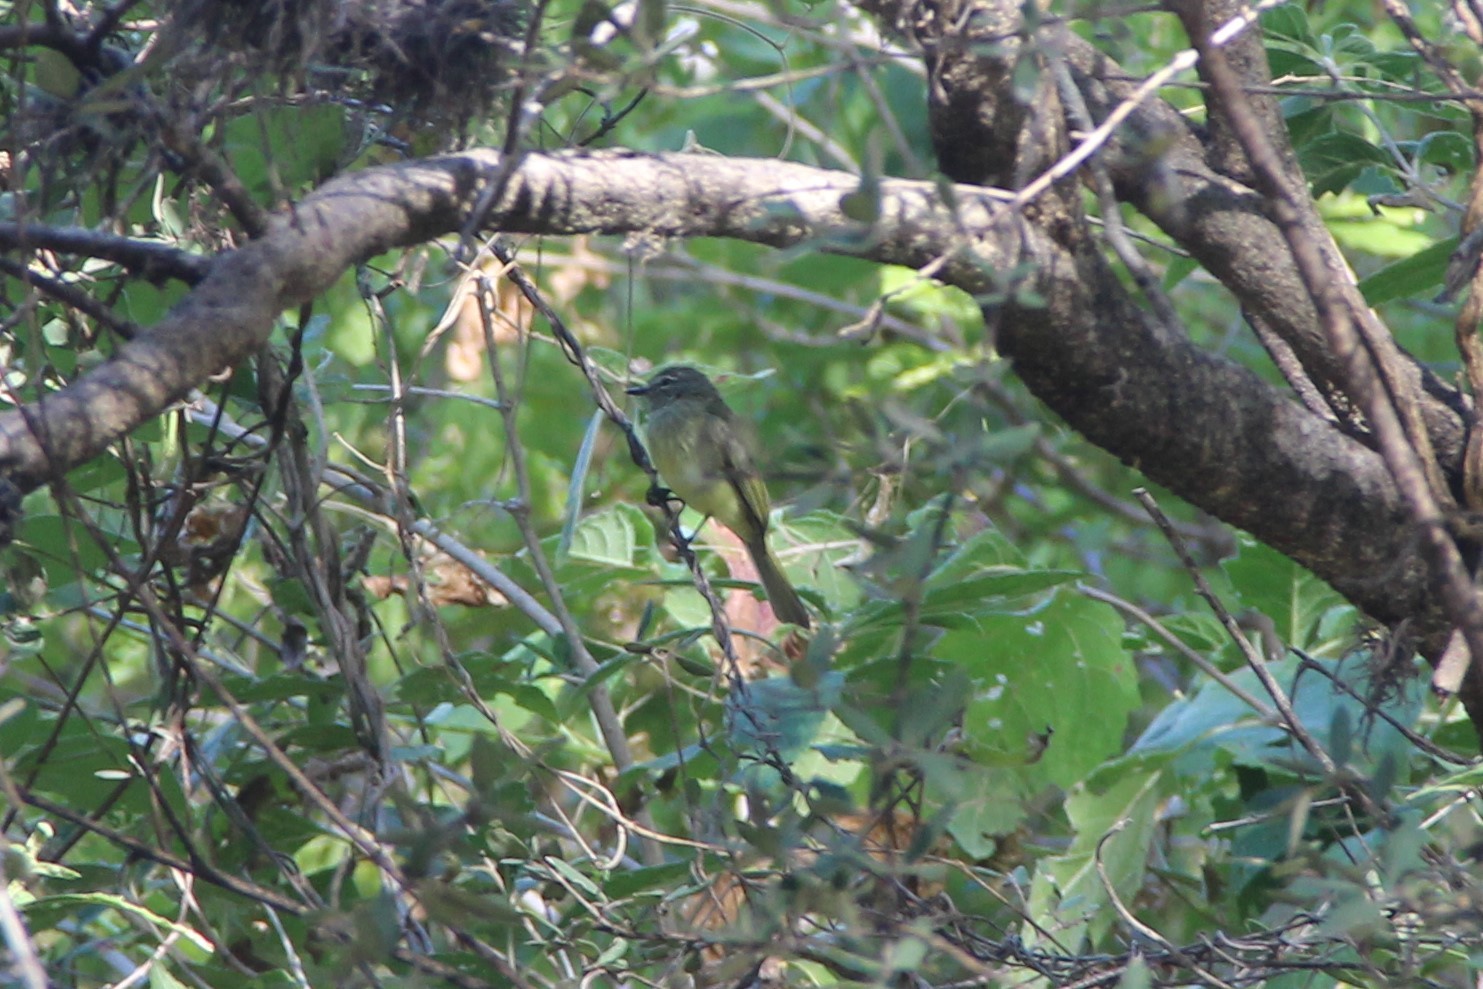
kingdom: Animalia
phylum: Chordata
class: Aves
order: Passeriformes
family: Tyrannidae
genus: Myiopagis
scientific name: Myiopagis viridicata
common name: Greenish elaenia
